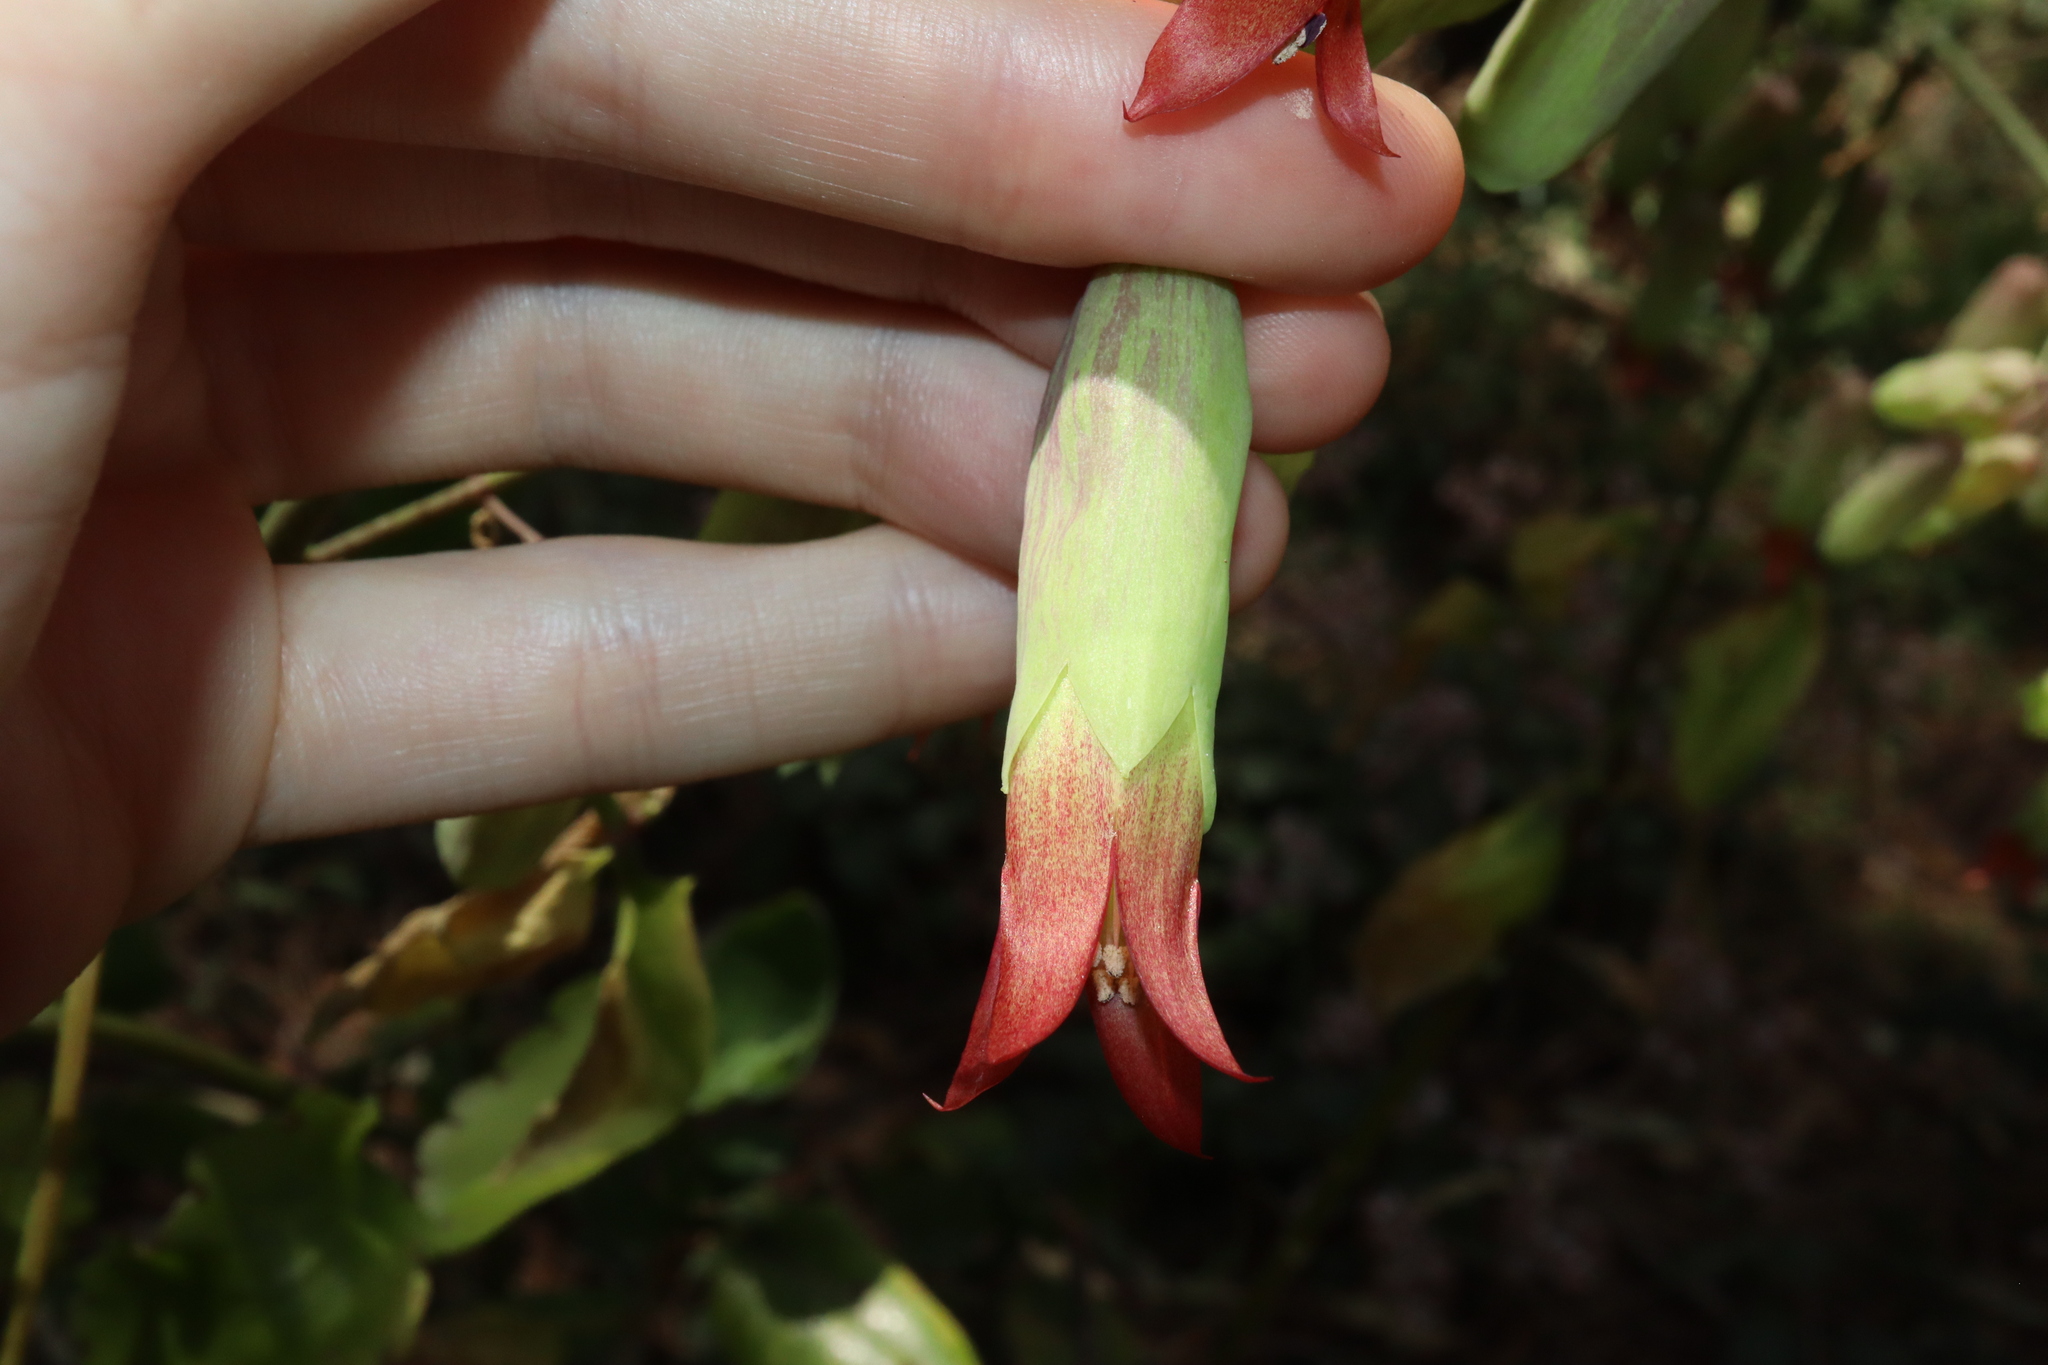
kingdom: Plantae
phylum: Tracheophyta
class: Magnoliopsida
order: Saxifragales
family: Crassulaceae
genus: Kalanchoe
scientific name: Kalanchoe pinnata
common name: Cathedral bells
